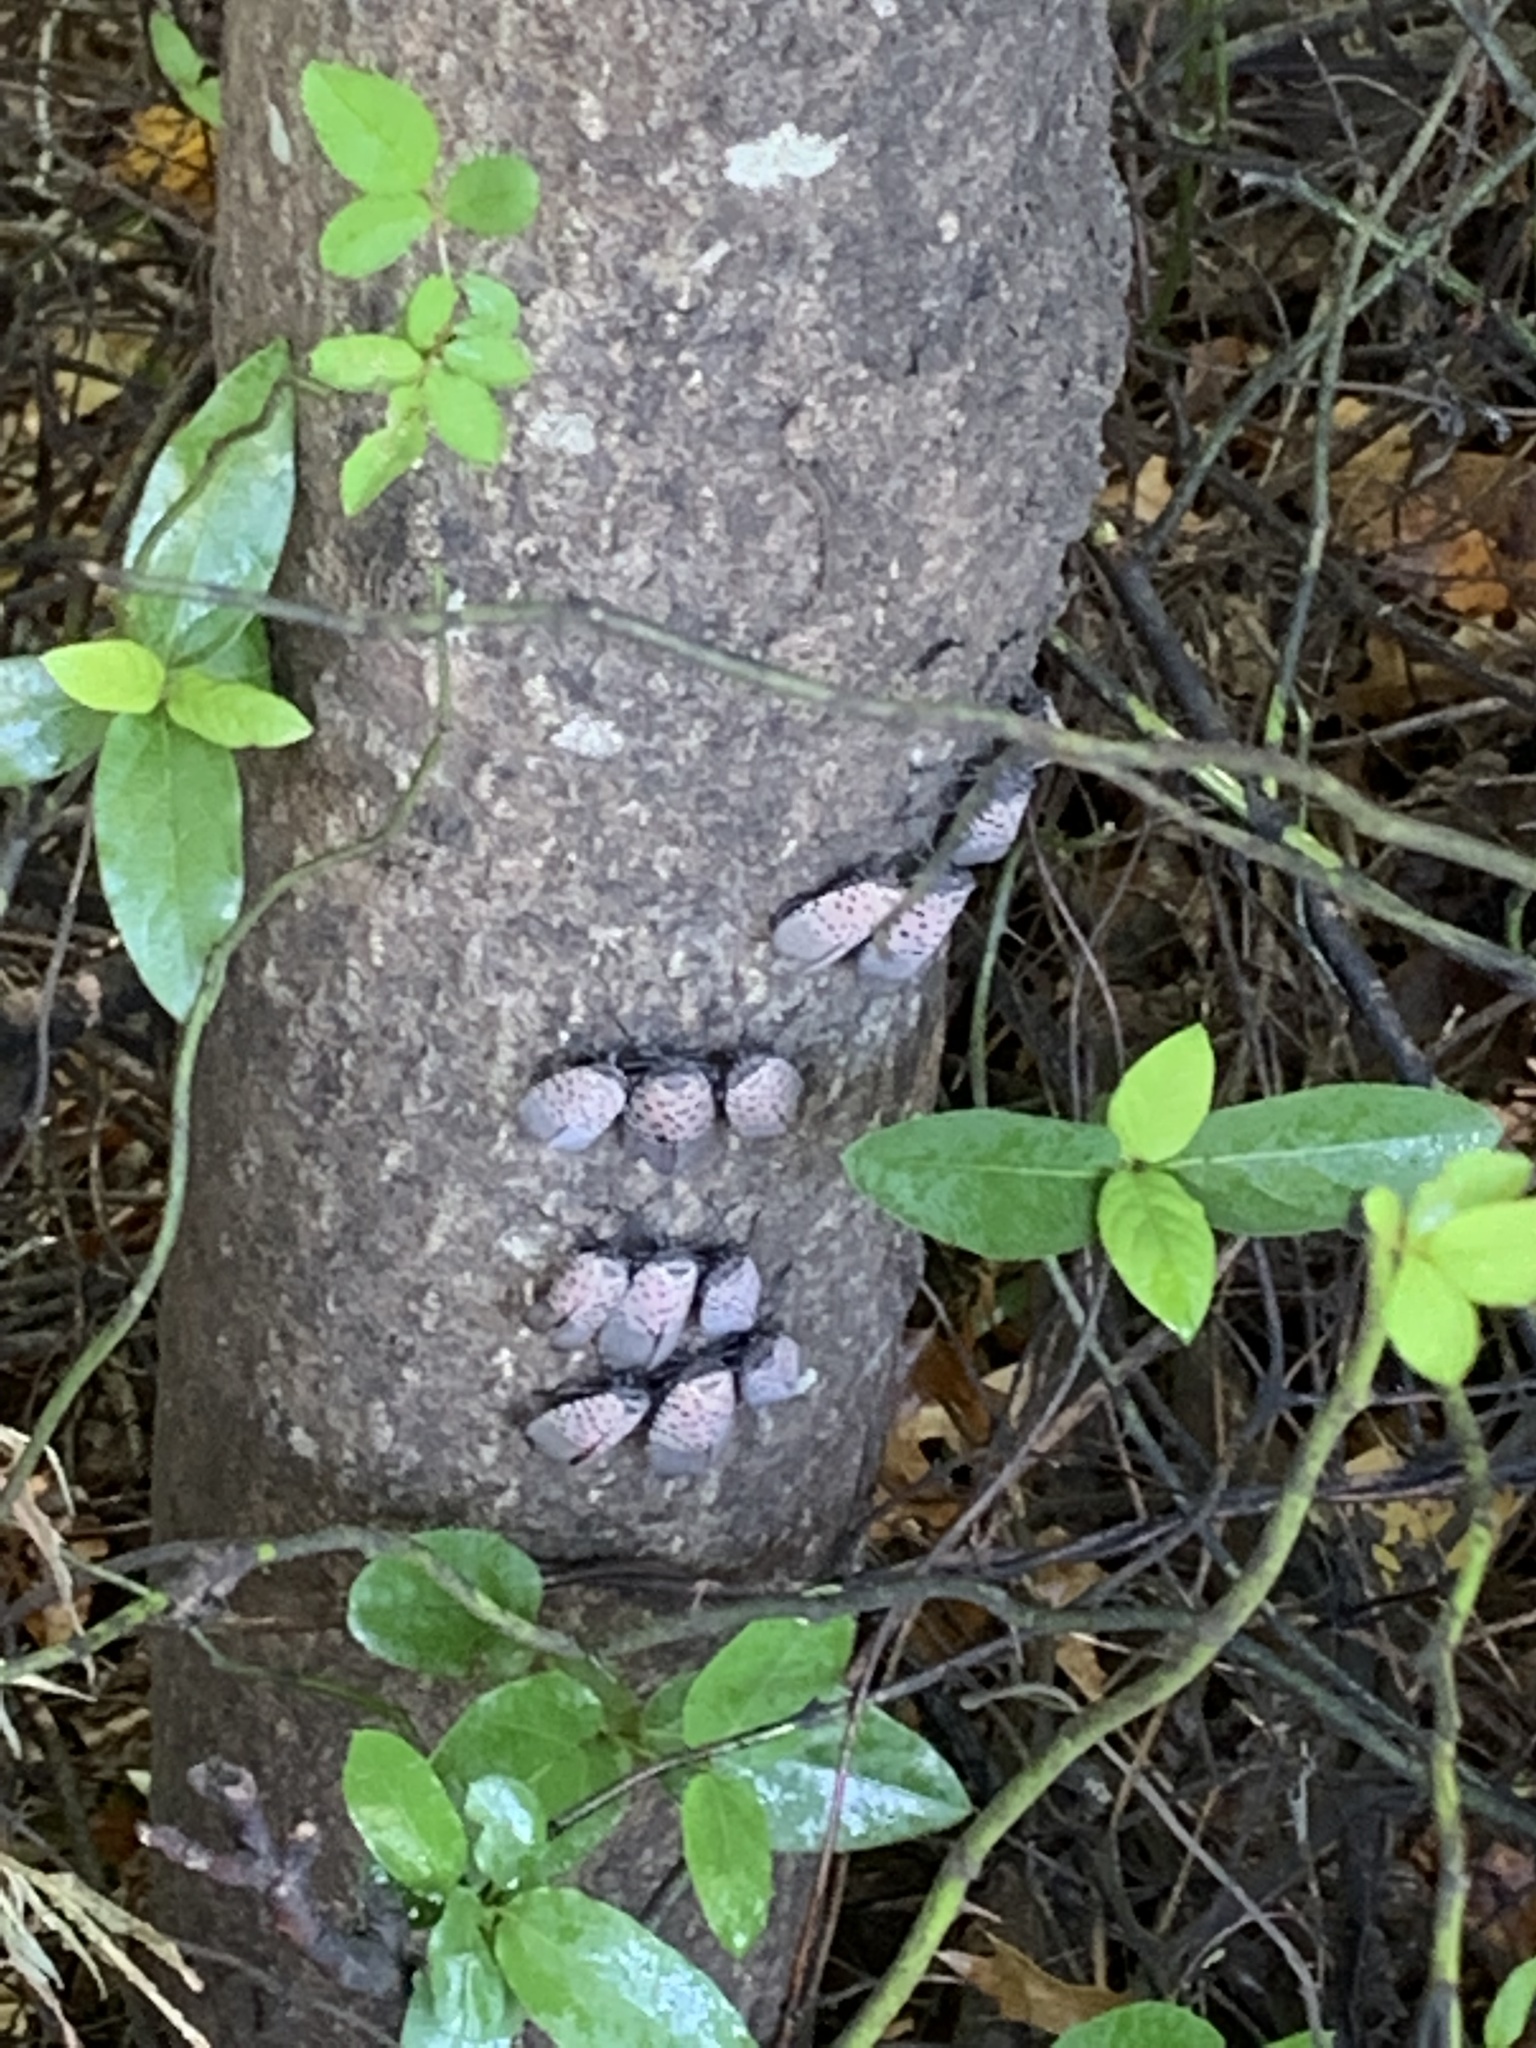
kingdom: Animalia
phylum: Arthropoda
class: Insecta
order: Hemiptera
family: Fulgoridae
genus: Lycorma
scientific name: Lycorma delicatula
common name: Spotted lanternfly
